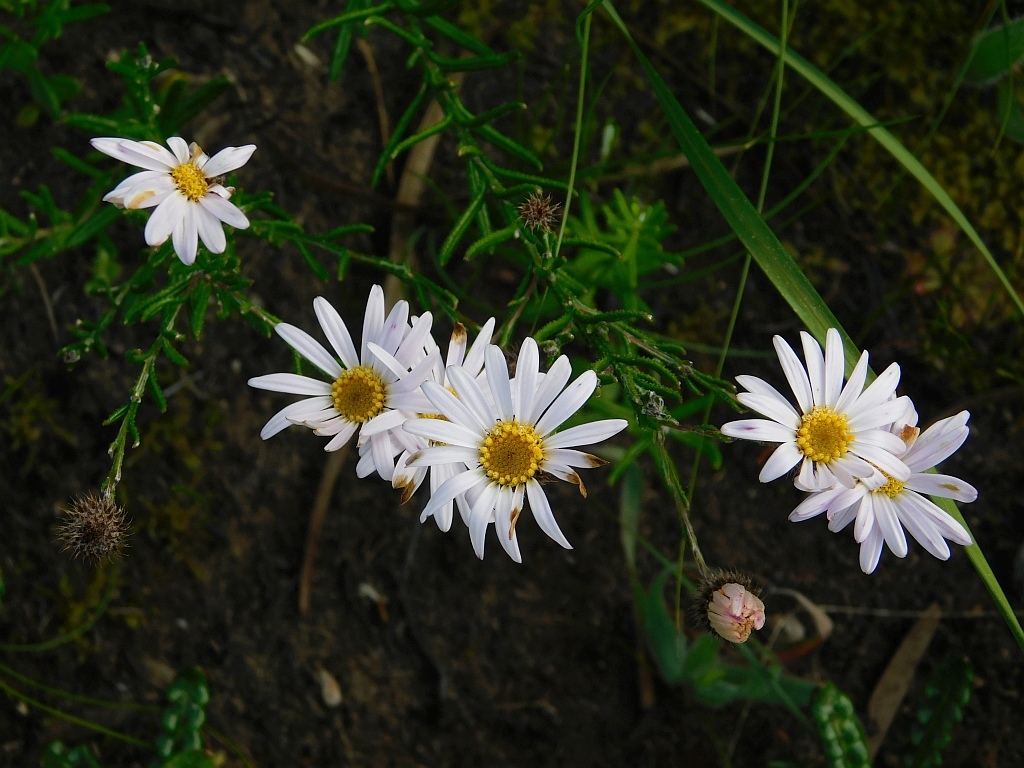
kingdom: Plantae
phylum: Tracheophyta
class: Magnoliopsida
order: Asterales
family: Asteraceae
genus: Athrixia
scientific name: Athrixia capensis
